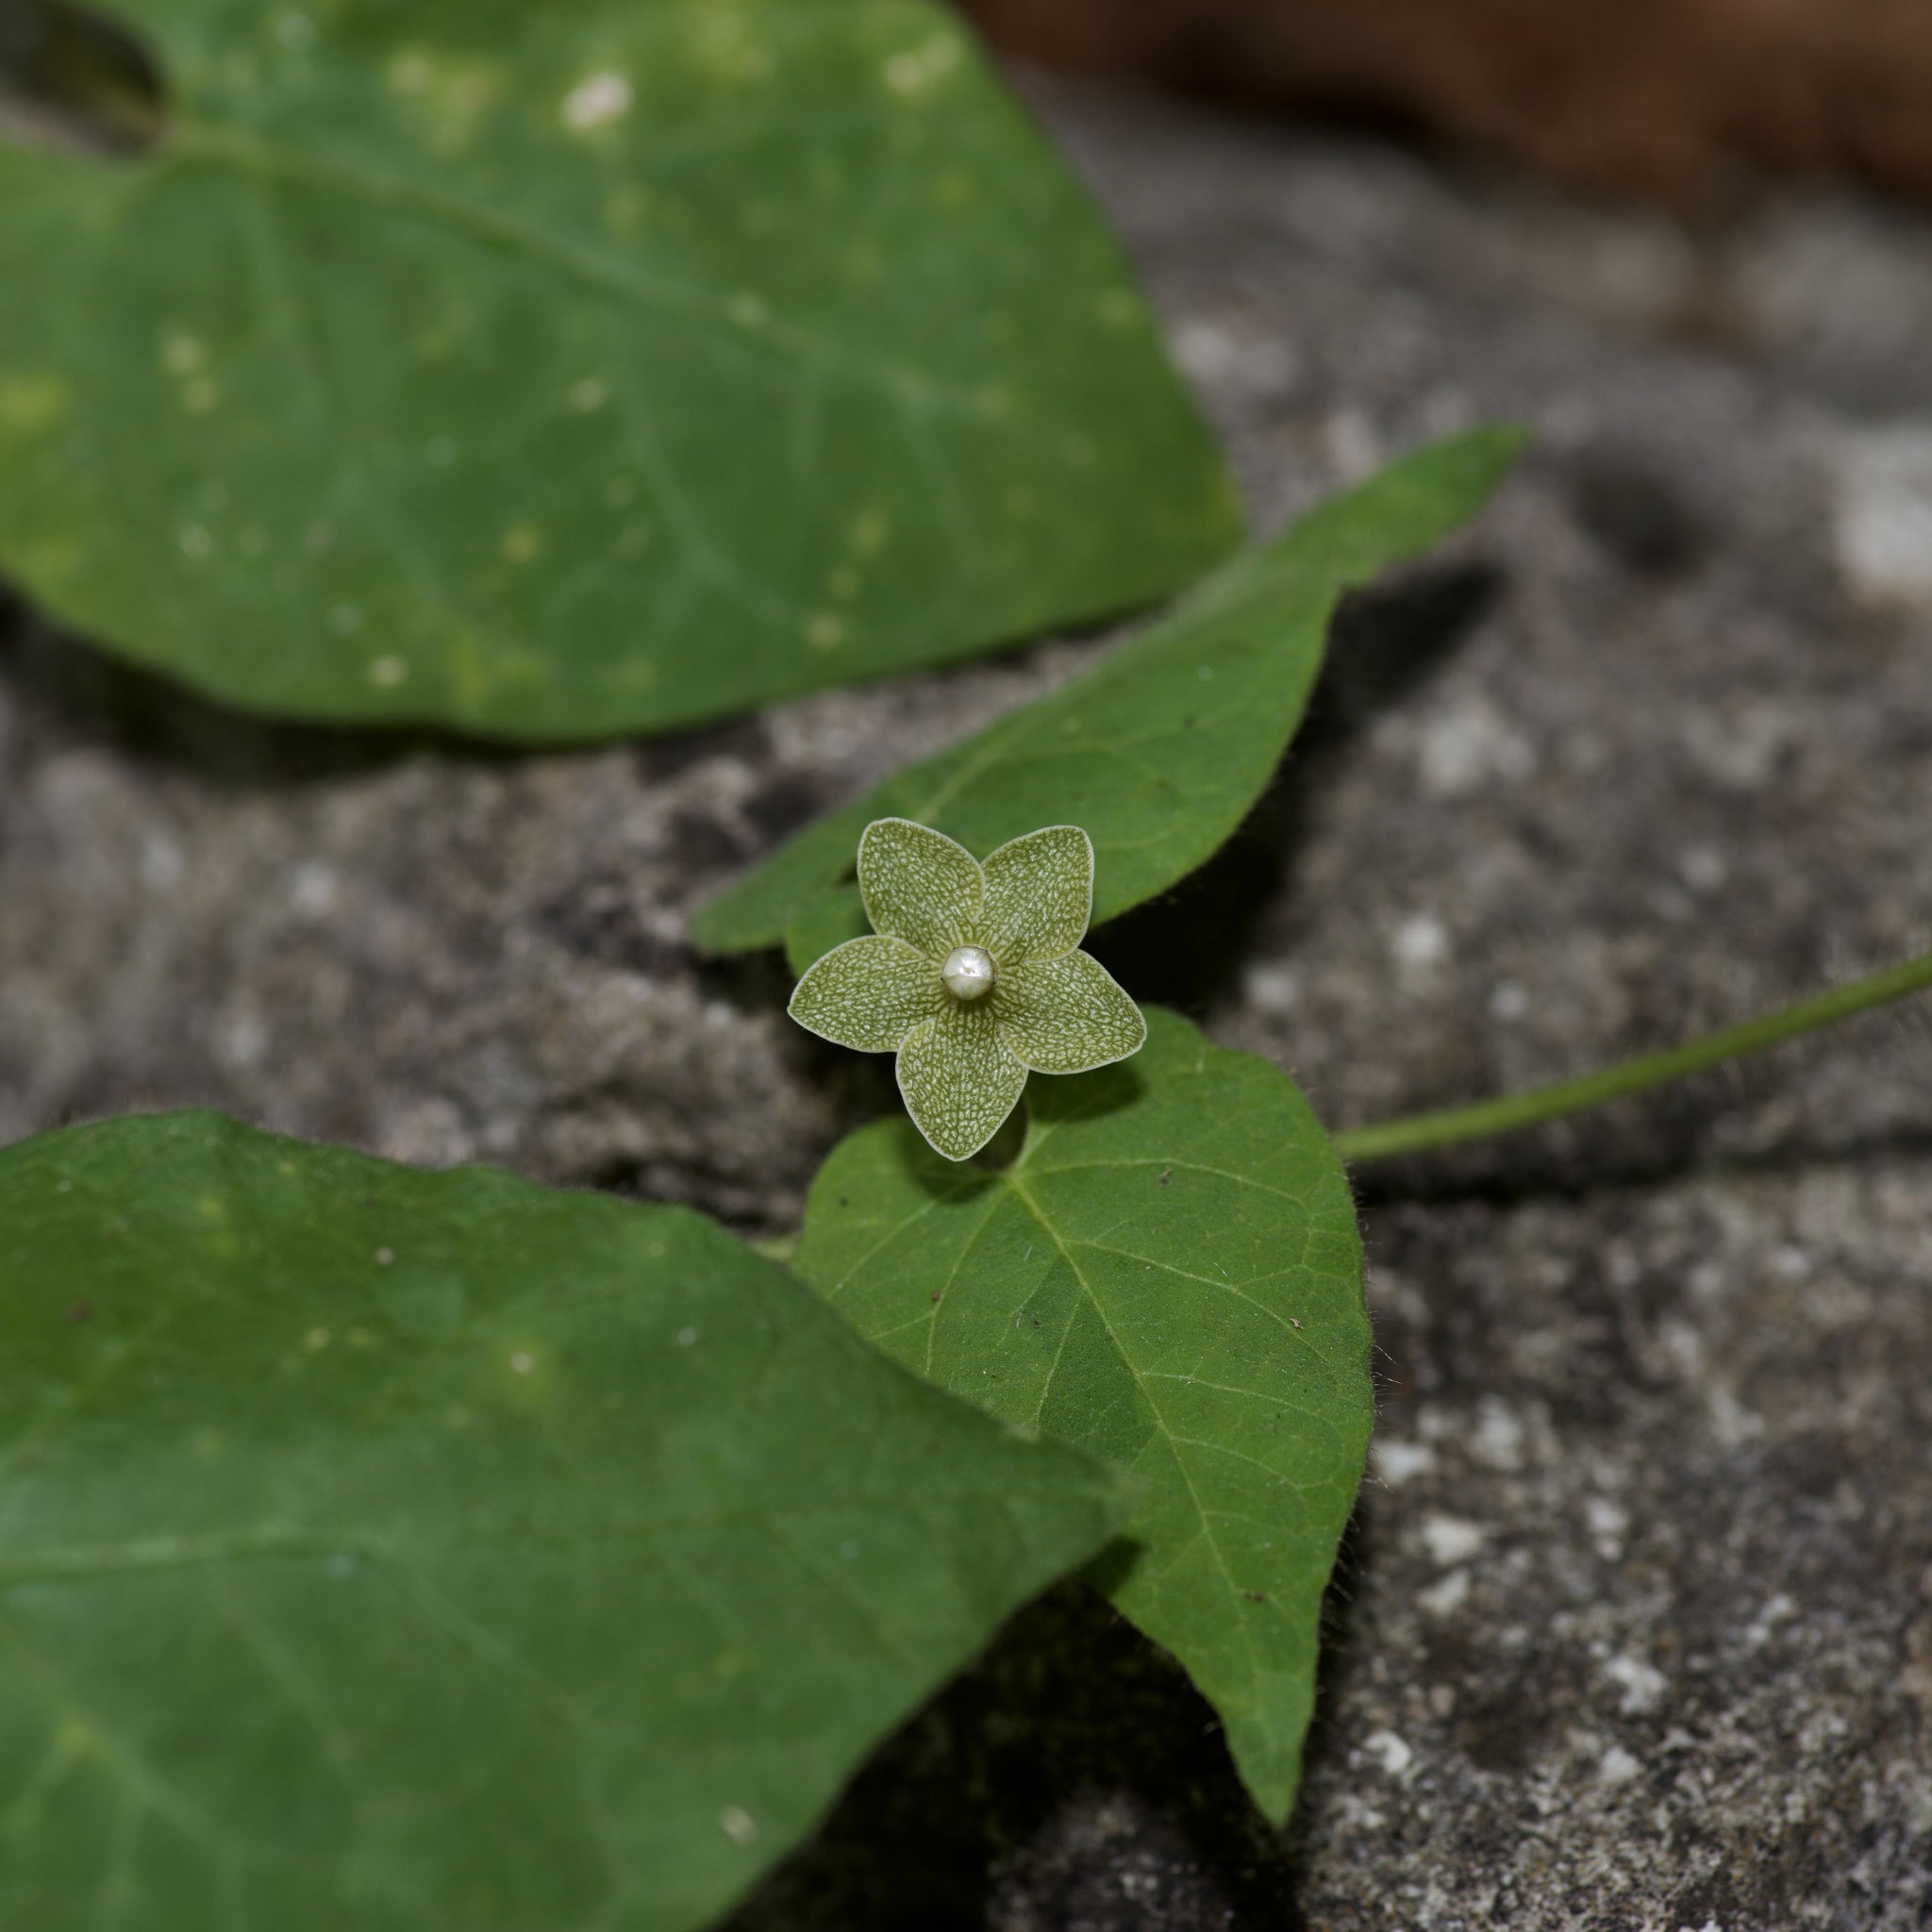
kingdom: Plantae
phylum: Tracheophyta
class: Magnoliopsida
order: Gentianales
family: Apocynaceae
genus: Dictyanthus
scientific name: Dictyanthus reticulatus
